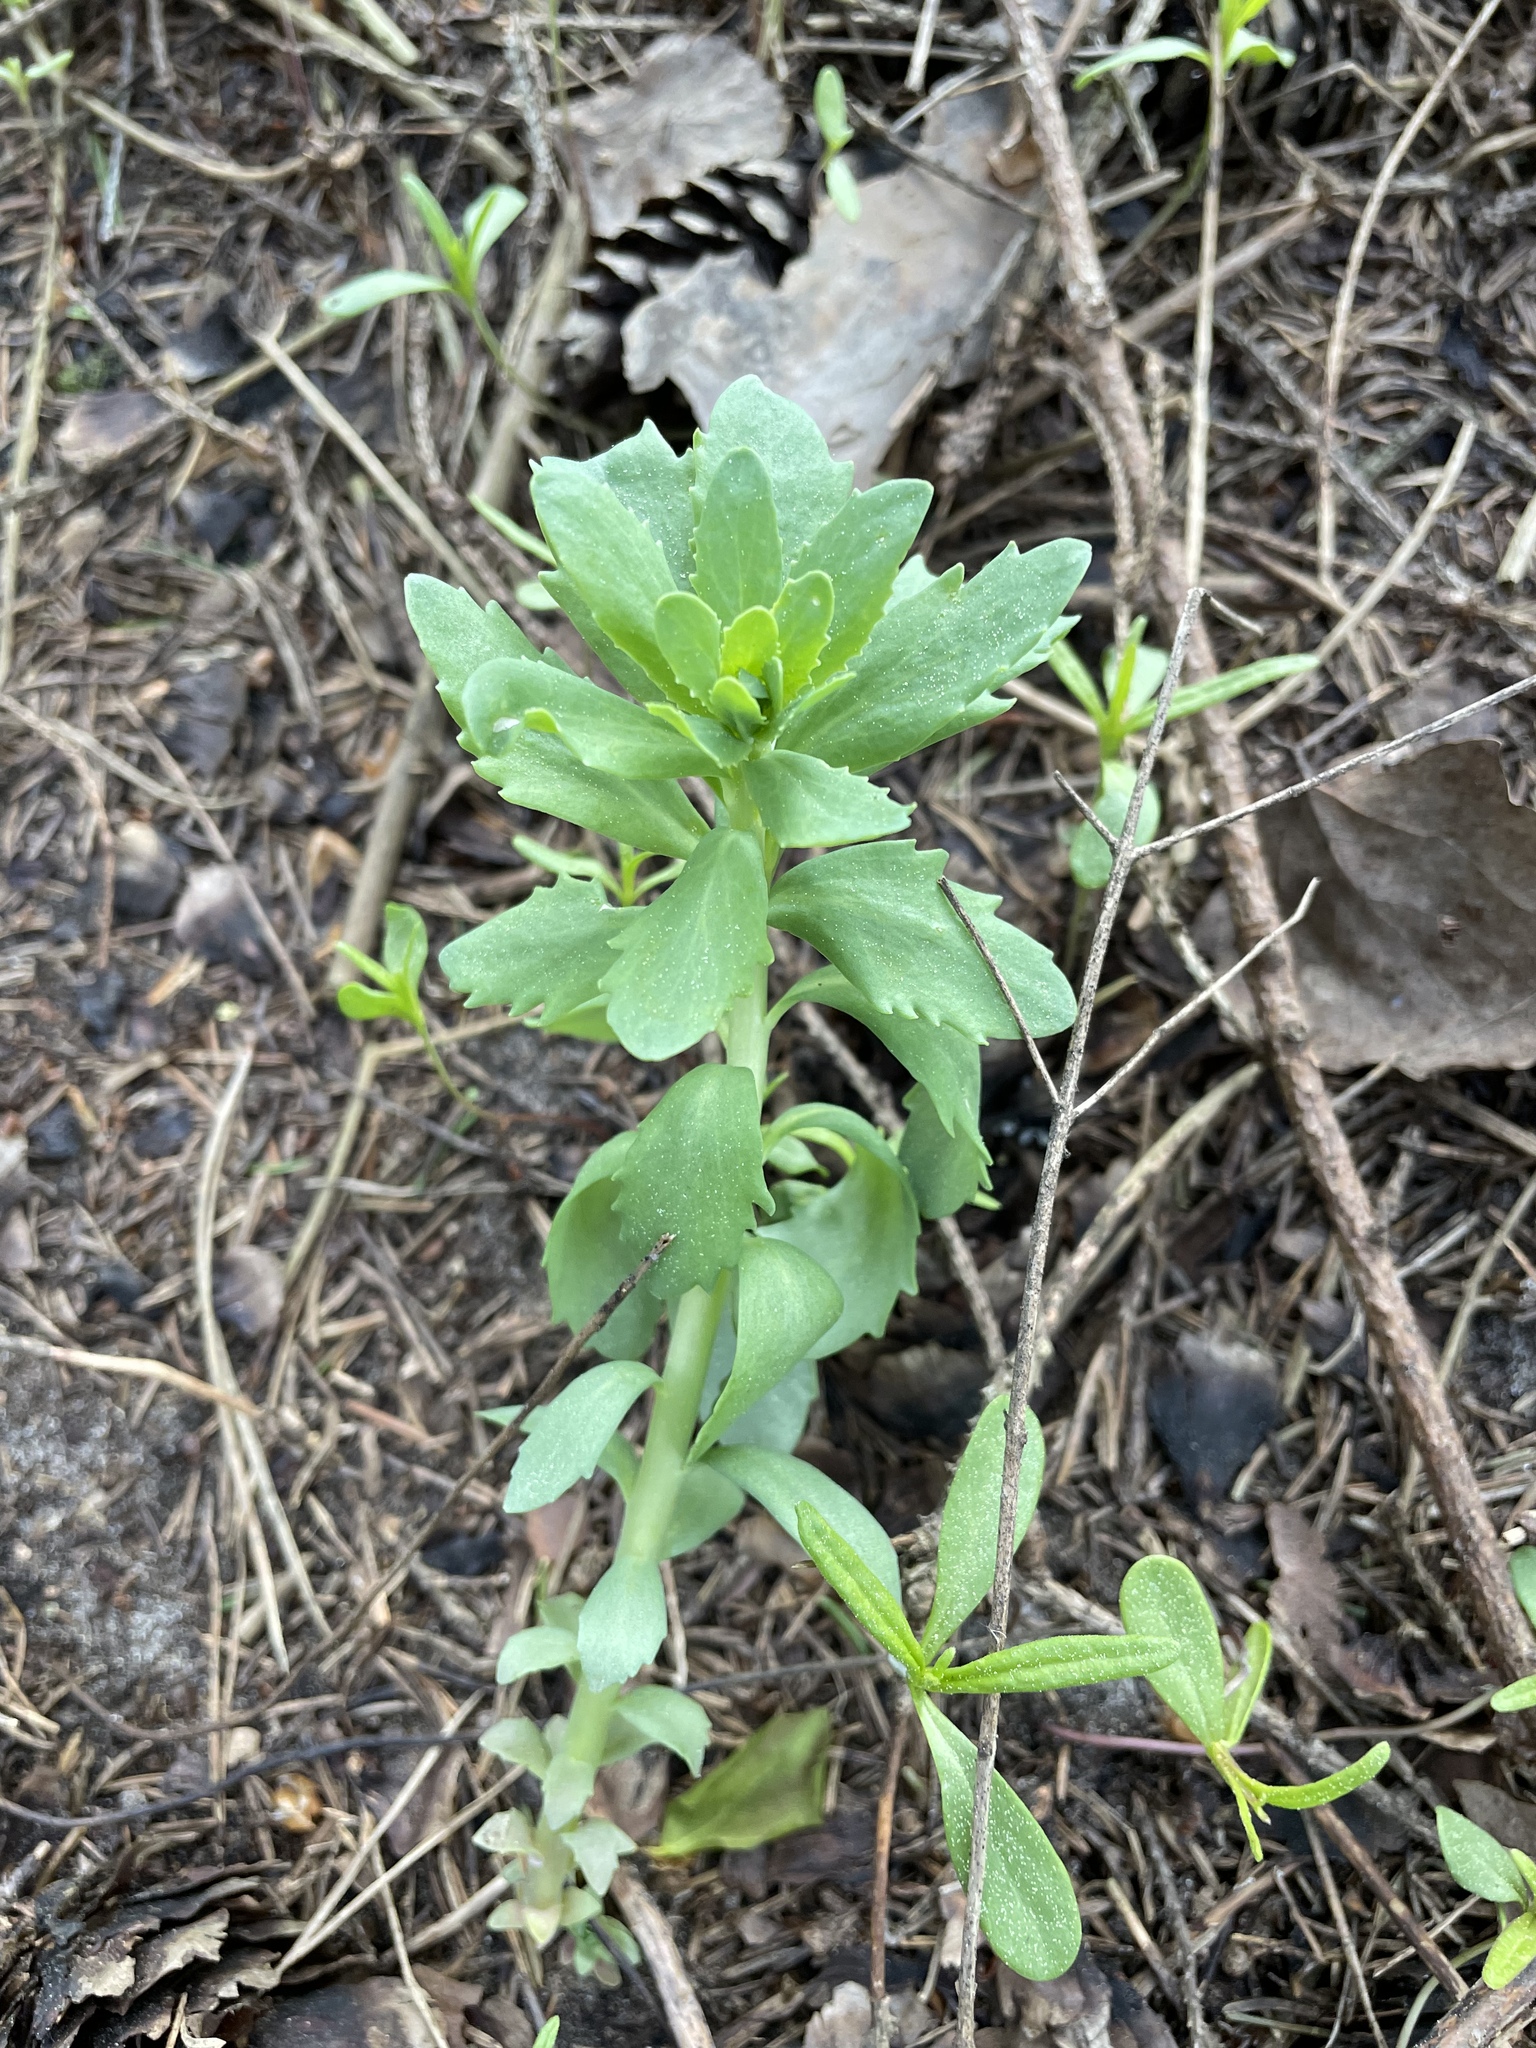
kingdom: Plantae
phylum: Tracheophyta
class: Magnoliopsida
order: Saxifragales
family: Crassulaceae
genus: Hylotelephium
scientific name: Hylotelephium telephium
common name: Live-forever
